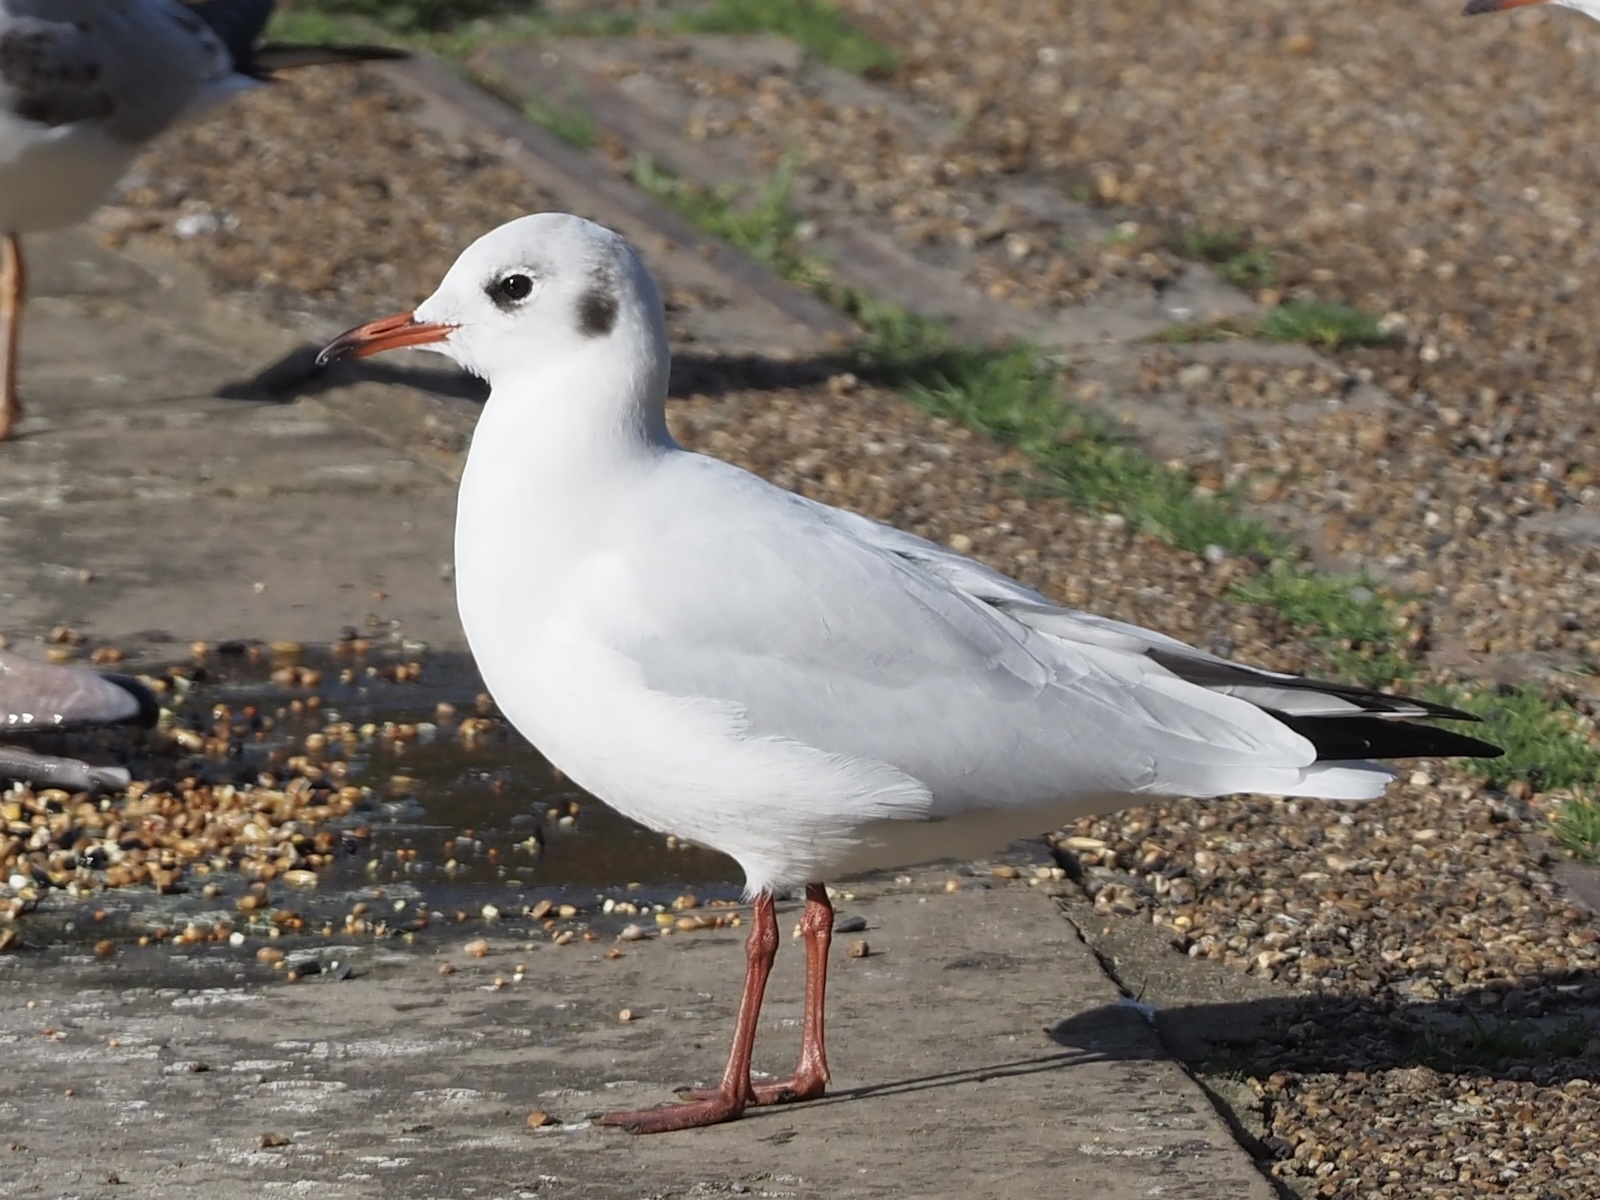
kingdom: Animalia
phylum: Chordata
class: Aves
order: Charadriiformes
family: Laridae
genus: Chroicocephalus
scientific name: Chroicocephalus ridibundus
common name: Black-headed gull
